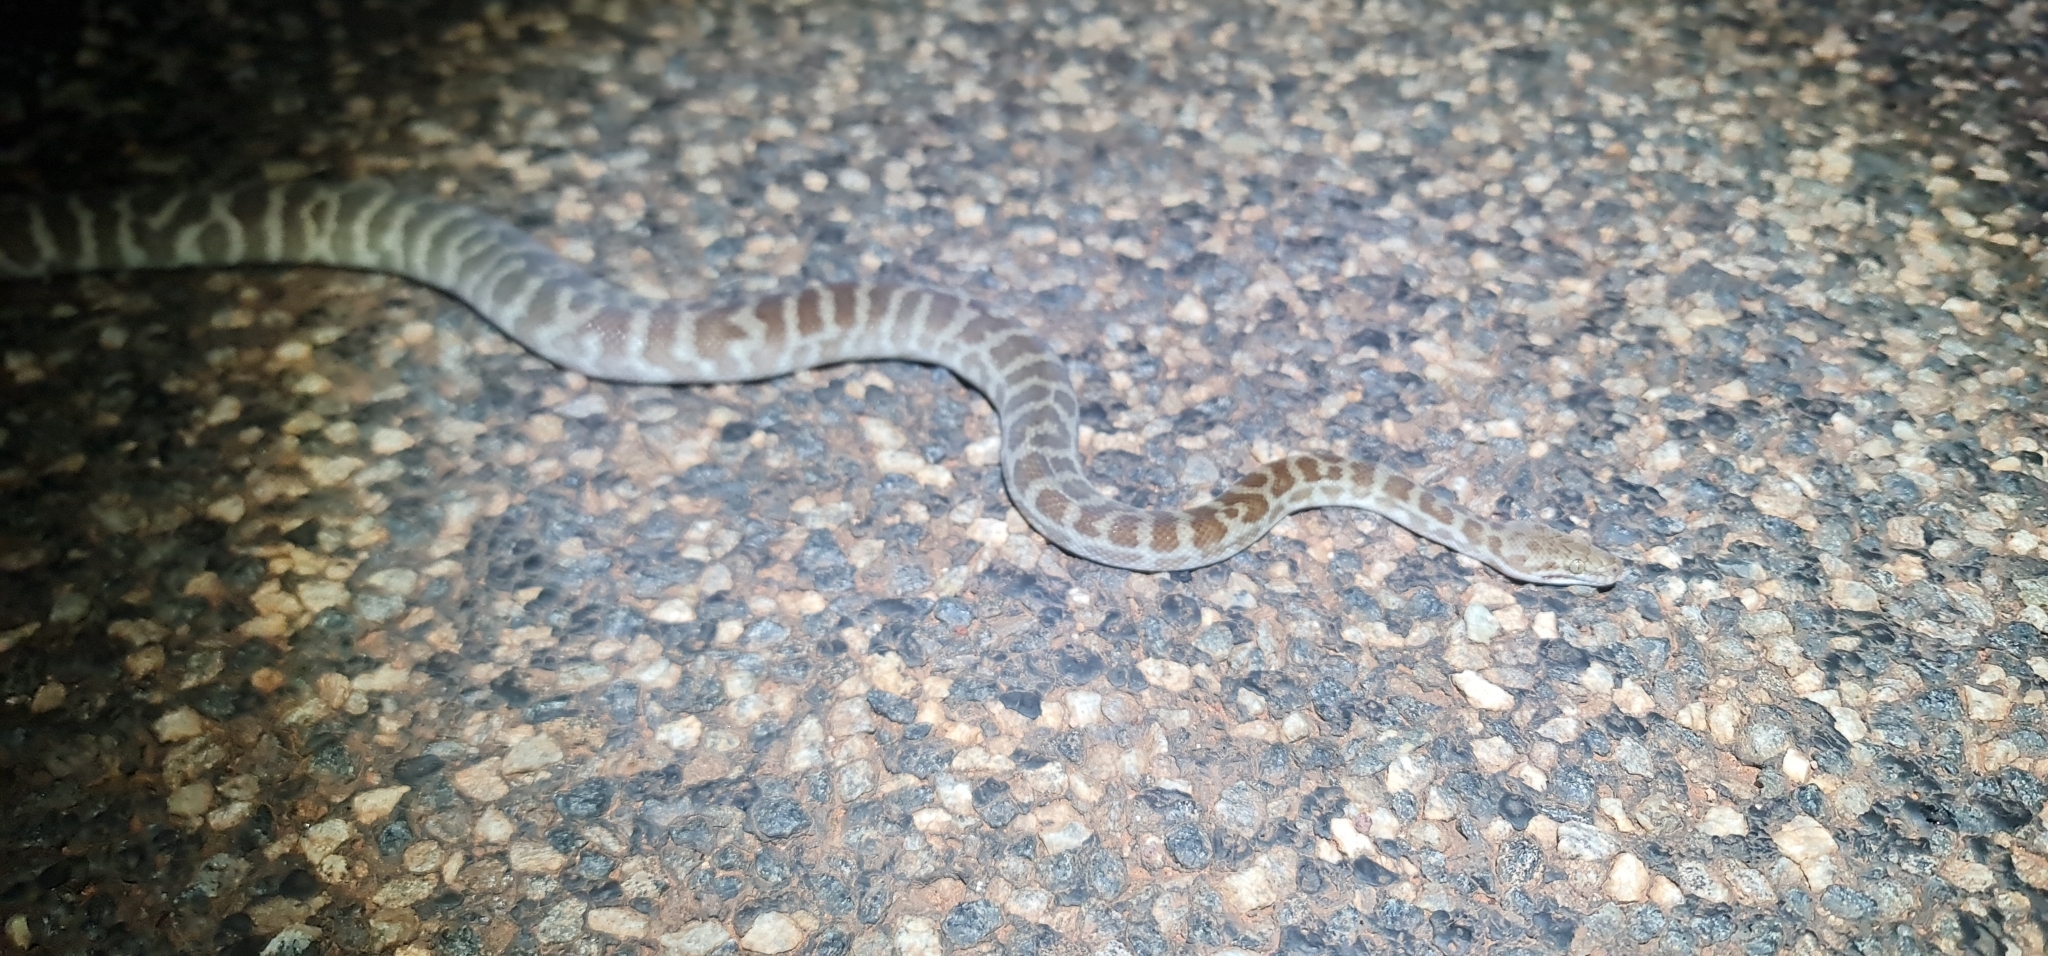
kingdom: Animalia
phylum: Chordata
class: Squamata
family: Pythonidae
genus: Antaresia
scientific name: Antaresia childreni
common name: Children's python
